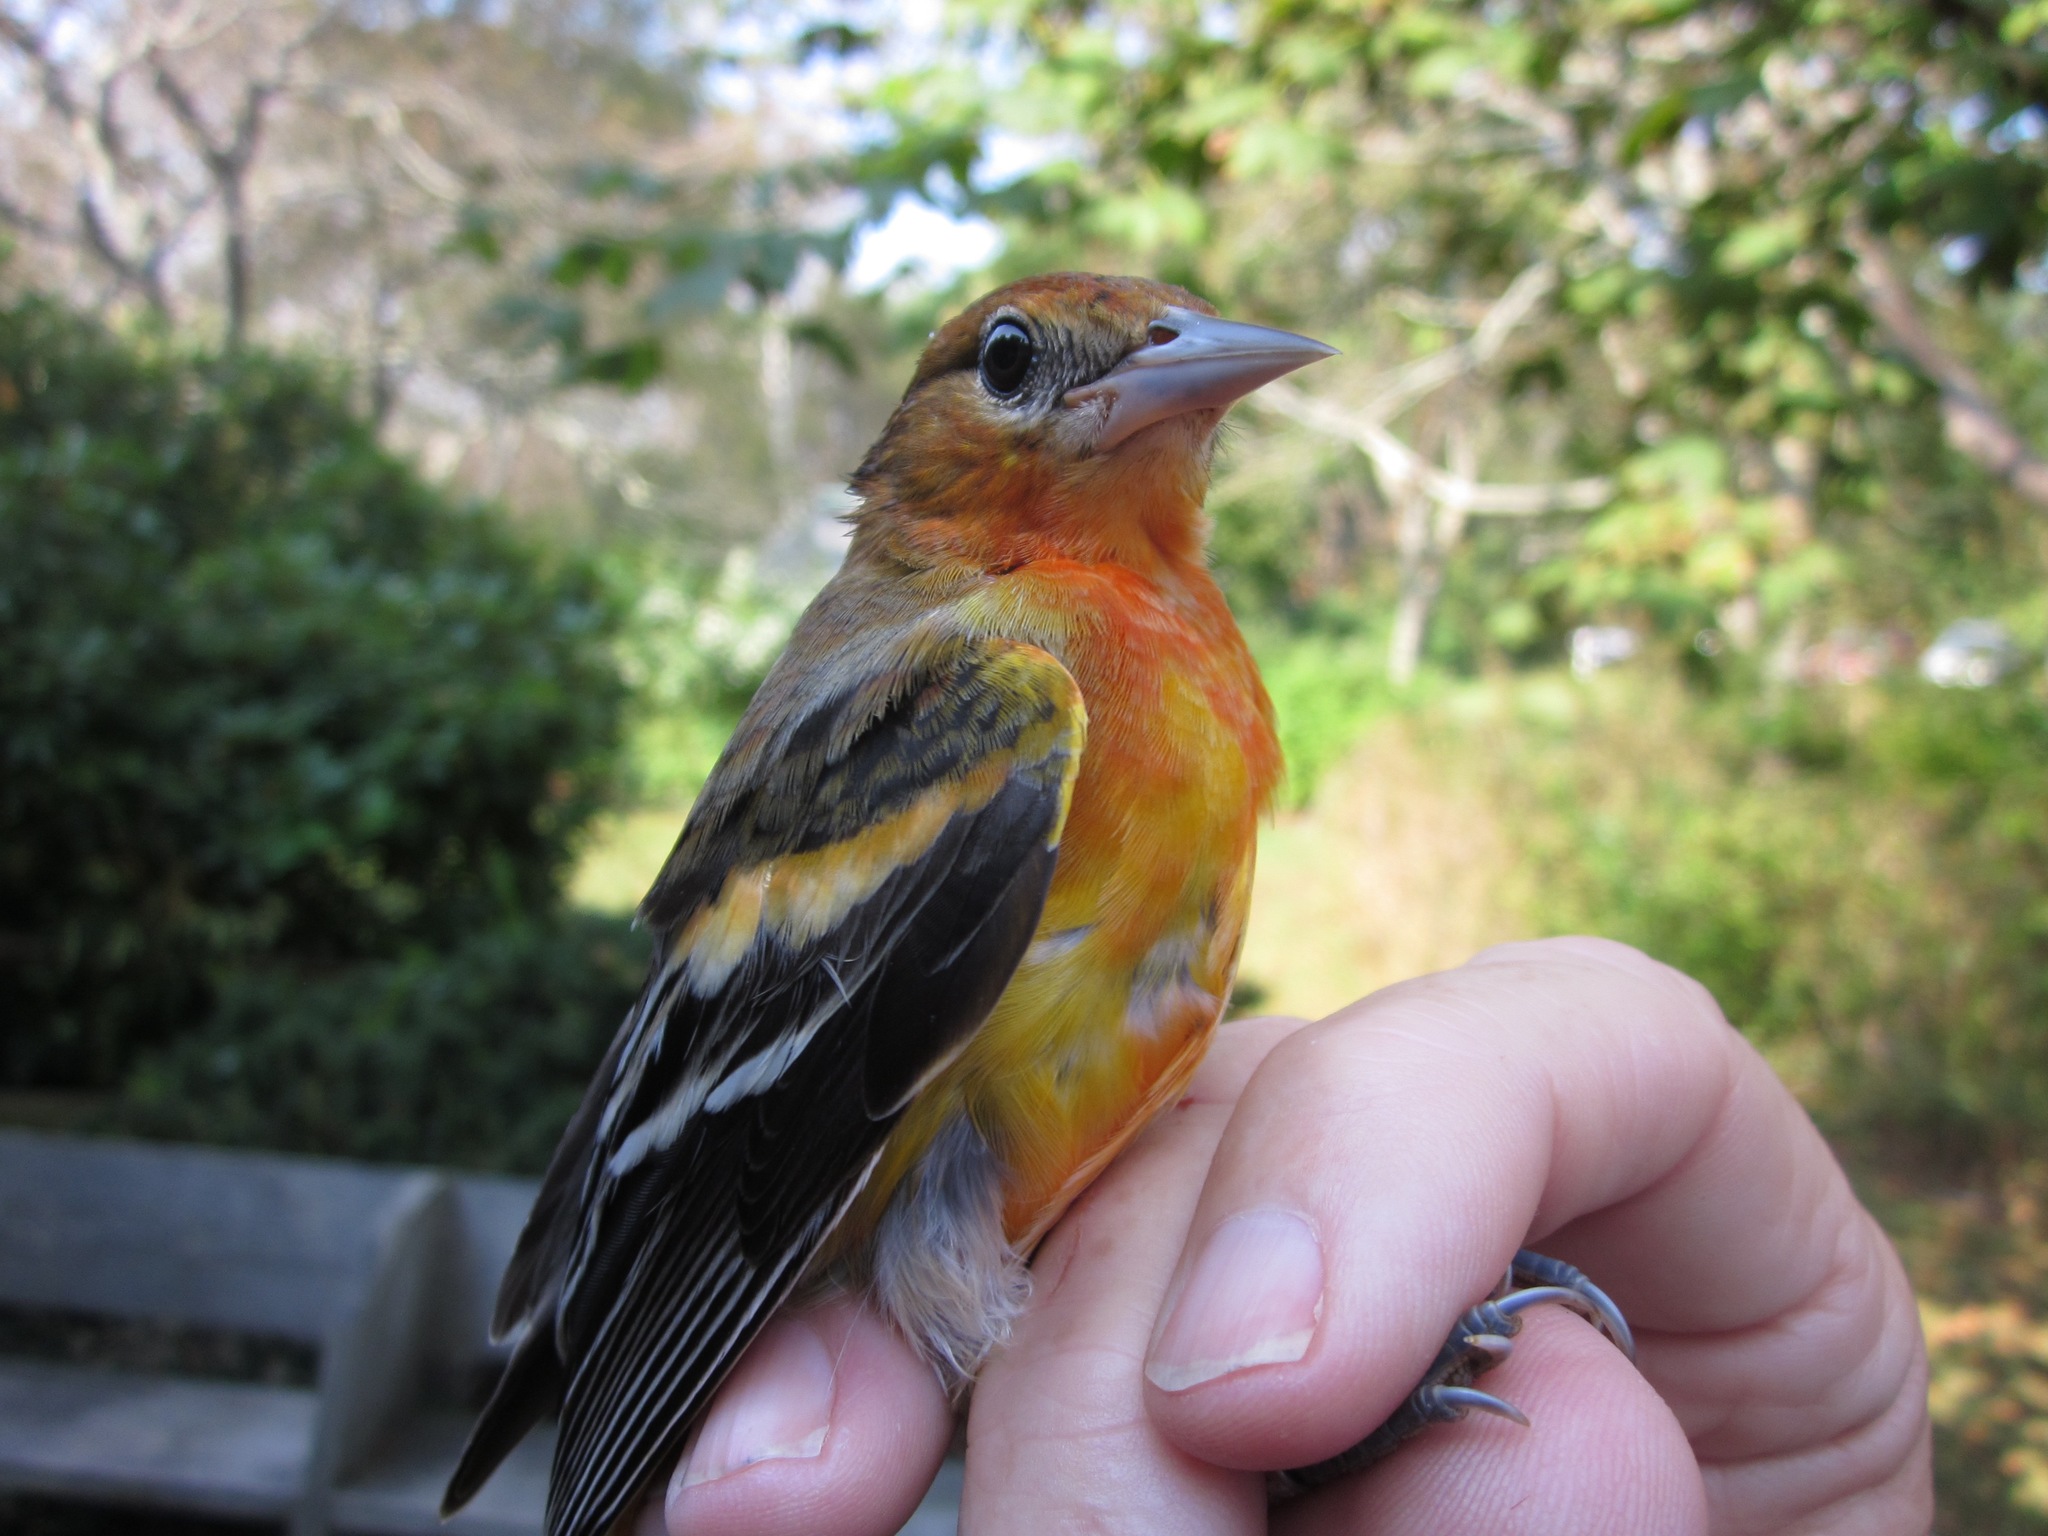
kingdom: Animalia
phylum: Chordata
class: Aves
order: Passeriformes
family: Icteridae
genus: Icterus
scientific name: Icterus galbula
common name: Baltimore oriole
